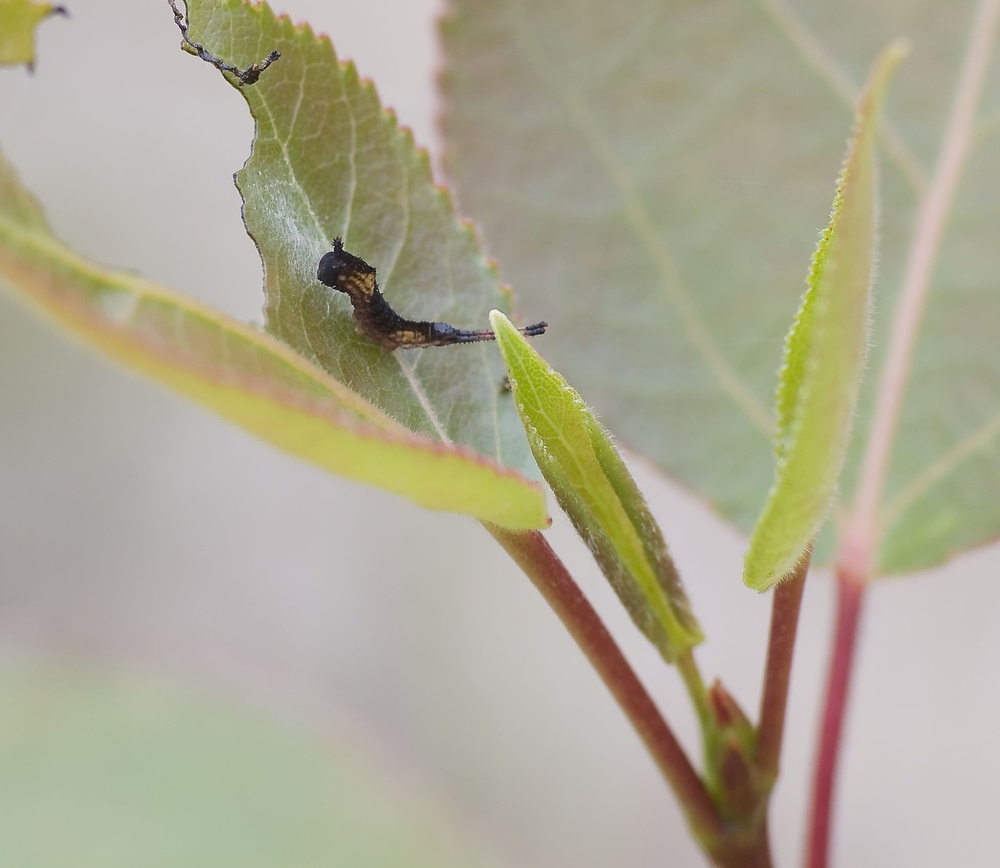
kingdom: Animalia
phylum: Arthropoda
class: Insecta
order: Lepidoptera
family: Notodontidae
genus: Cerura
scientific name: Cerura vinula
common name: Puss moth
